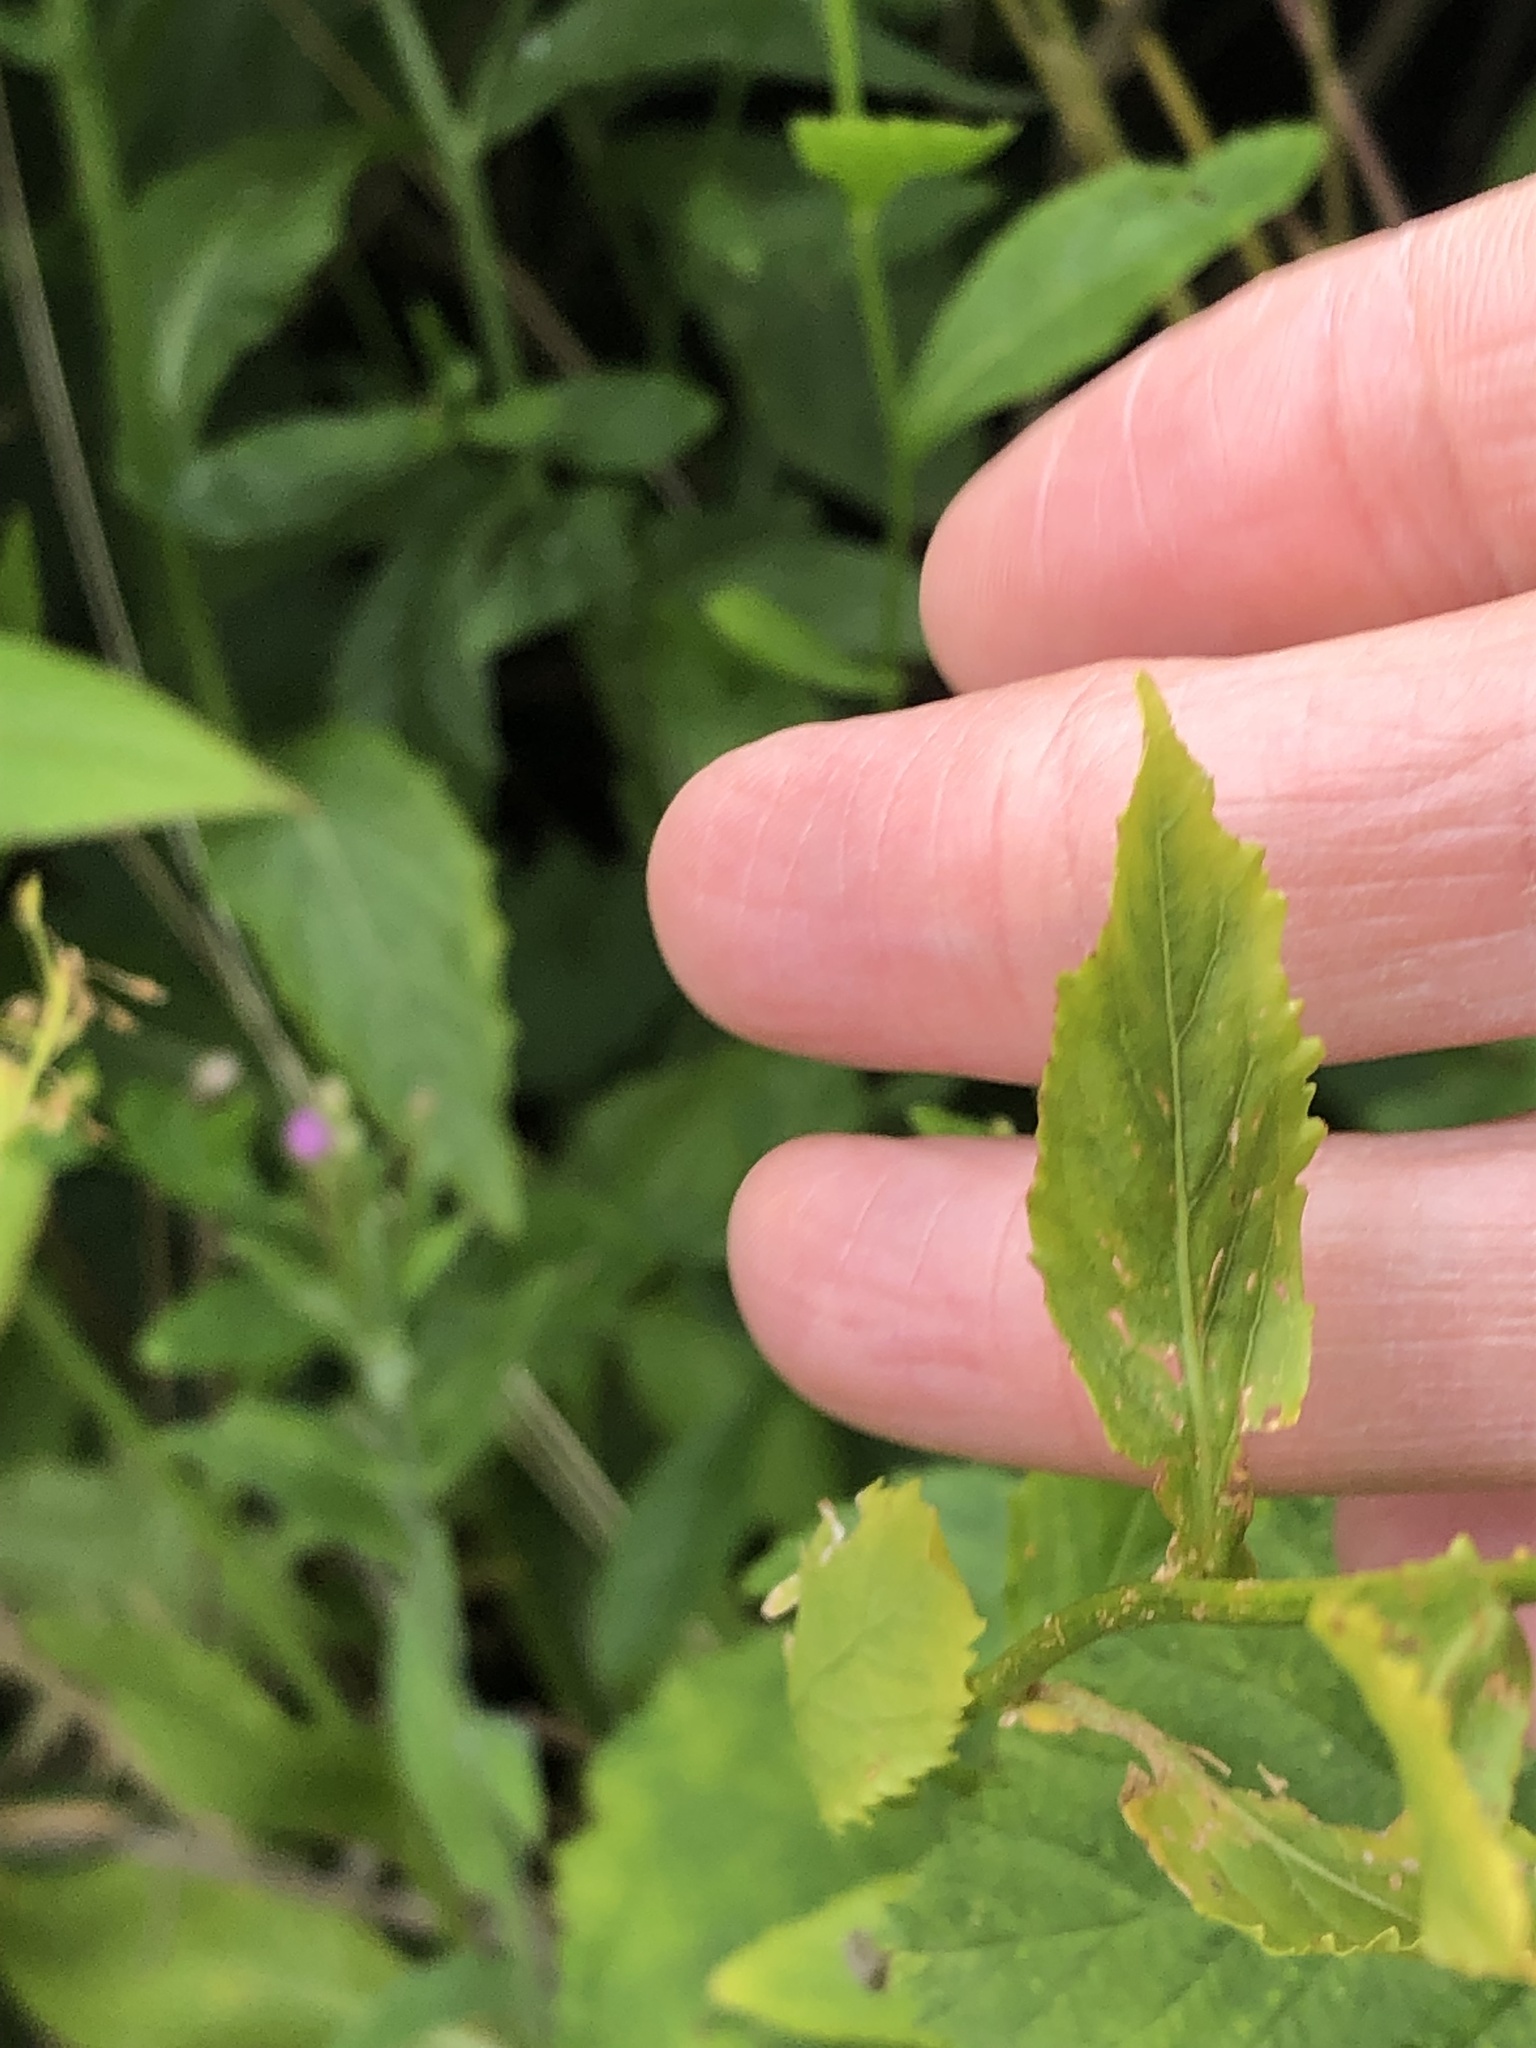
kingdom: Plantae
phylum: Tracheophyta
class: Magnoliopsida
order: Brassicales
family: Brassicaceae
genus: Rorippa
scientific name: Rorippa austriaca
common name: Austrian yellow-cress
